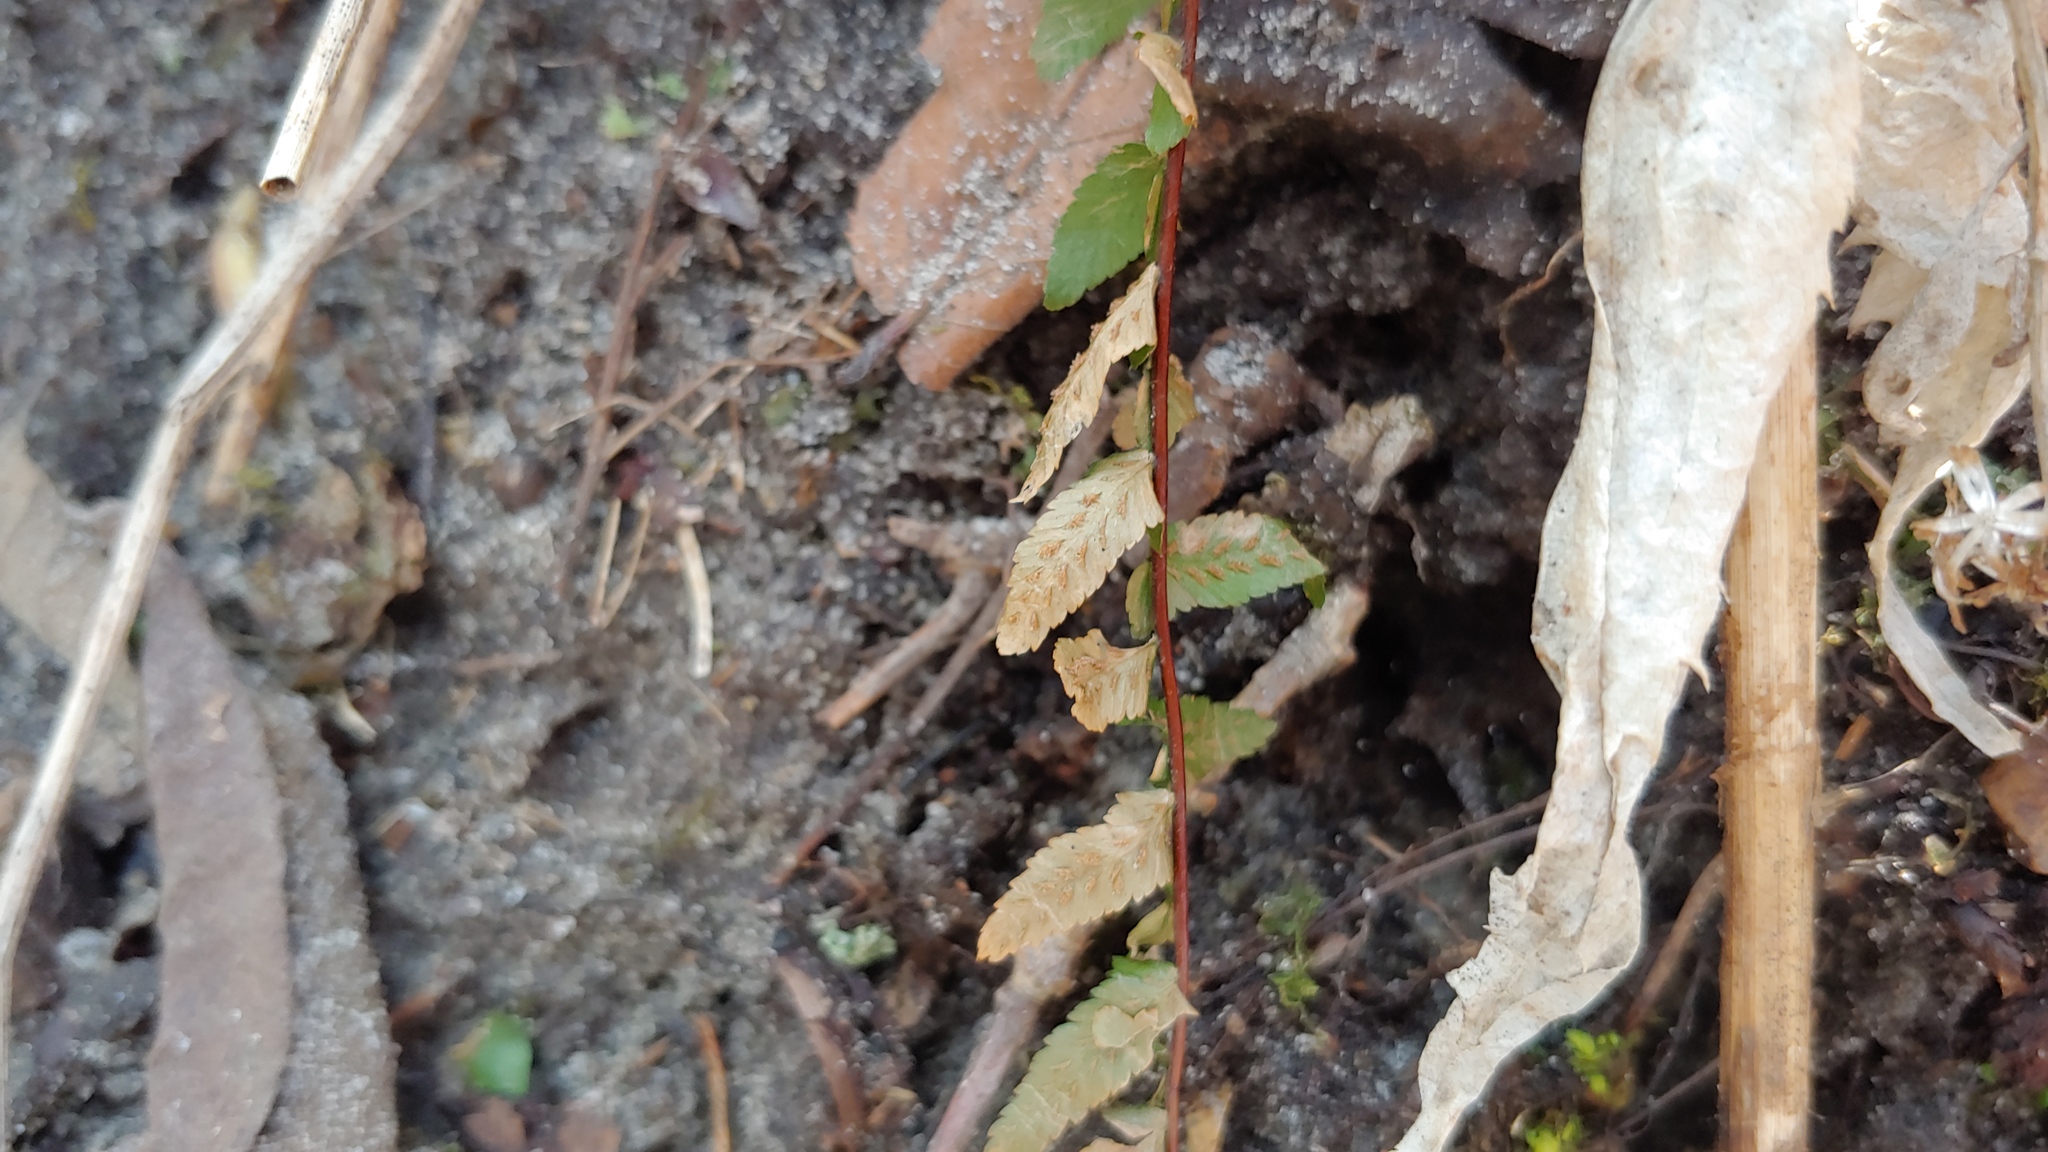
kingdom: Plantae
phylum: Tracheophyta
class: Polypodiopsida
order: Polypodiales
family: Aspleniaceae
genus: Asplenium
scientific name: Asplenium platyneuron
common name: Ebony spleenwort
